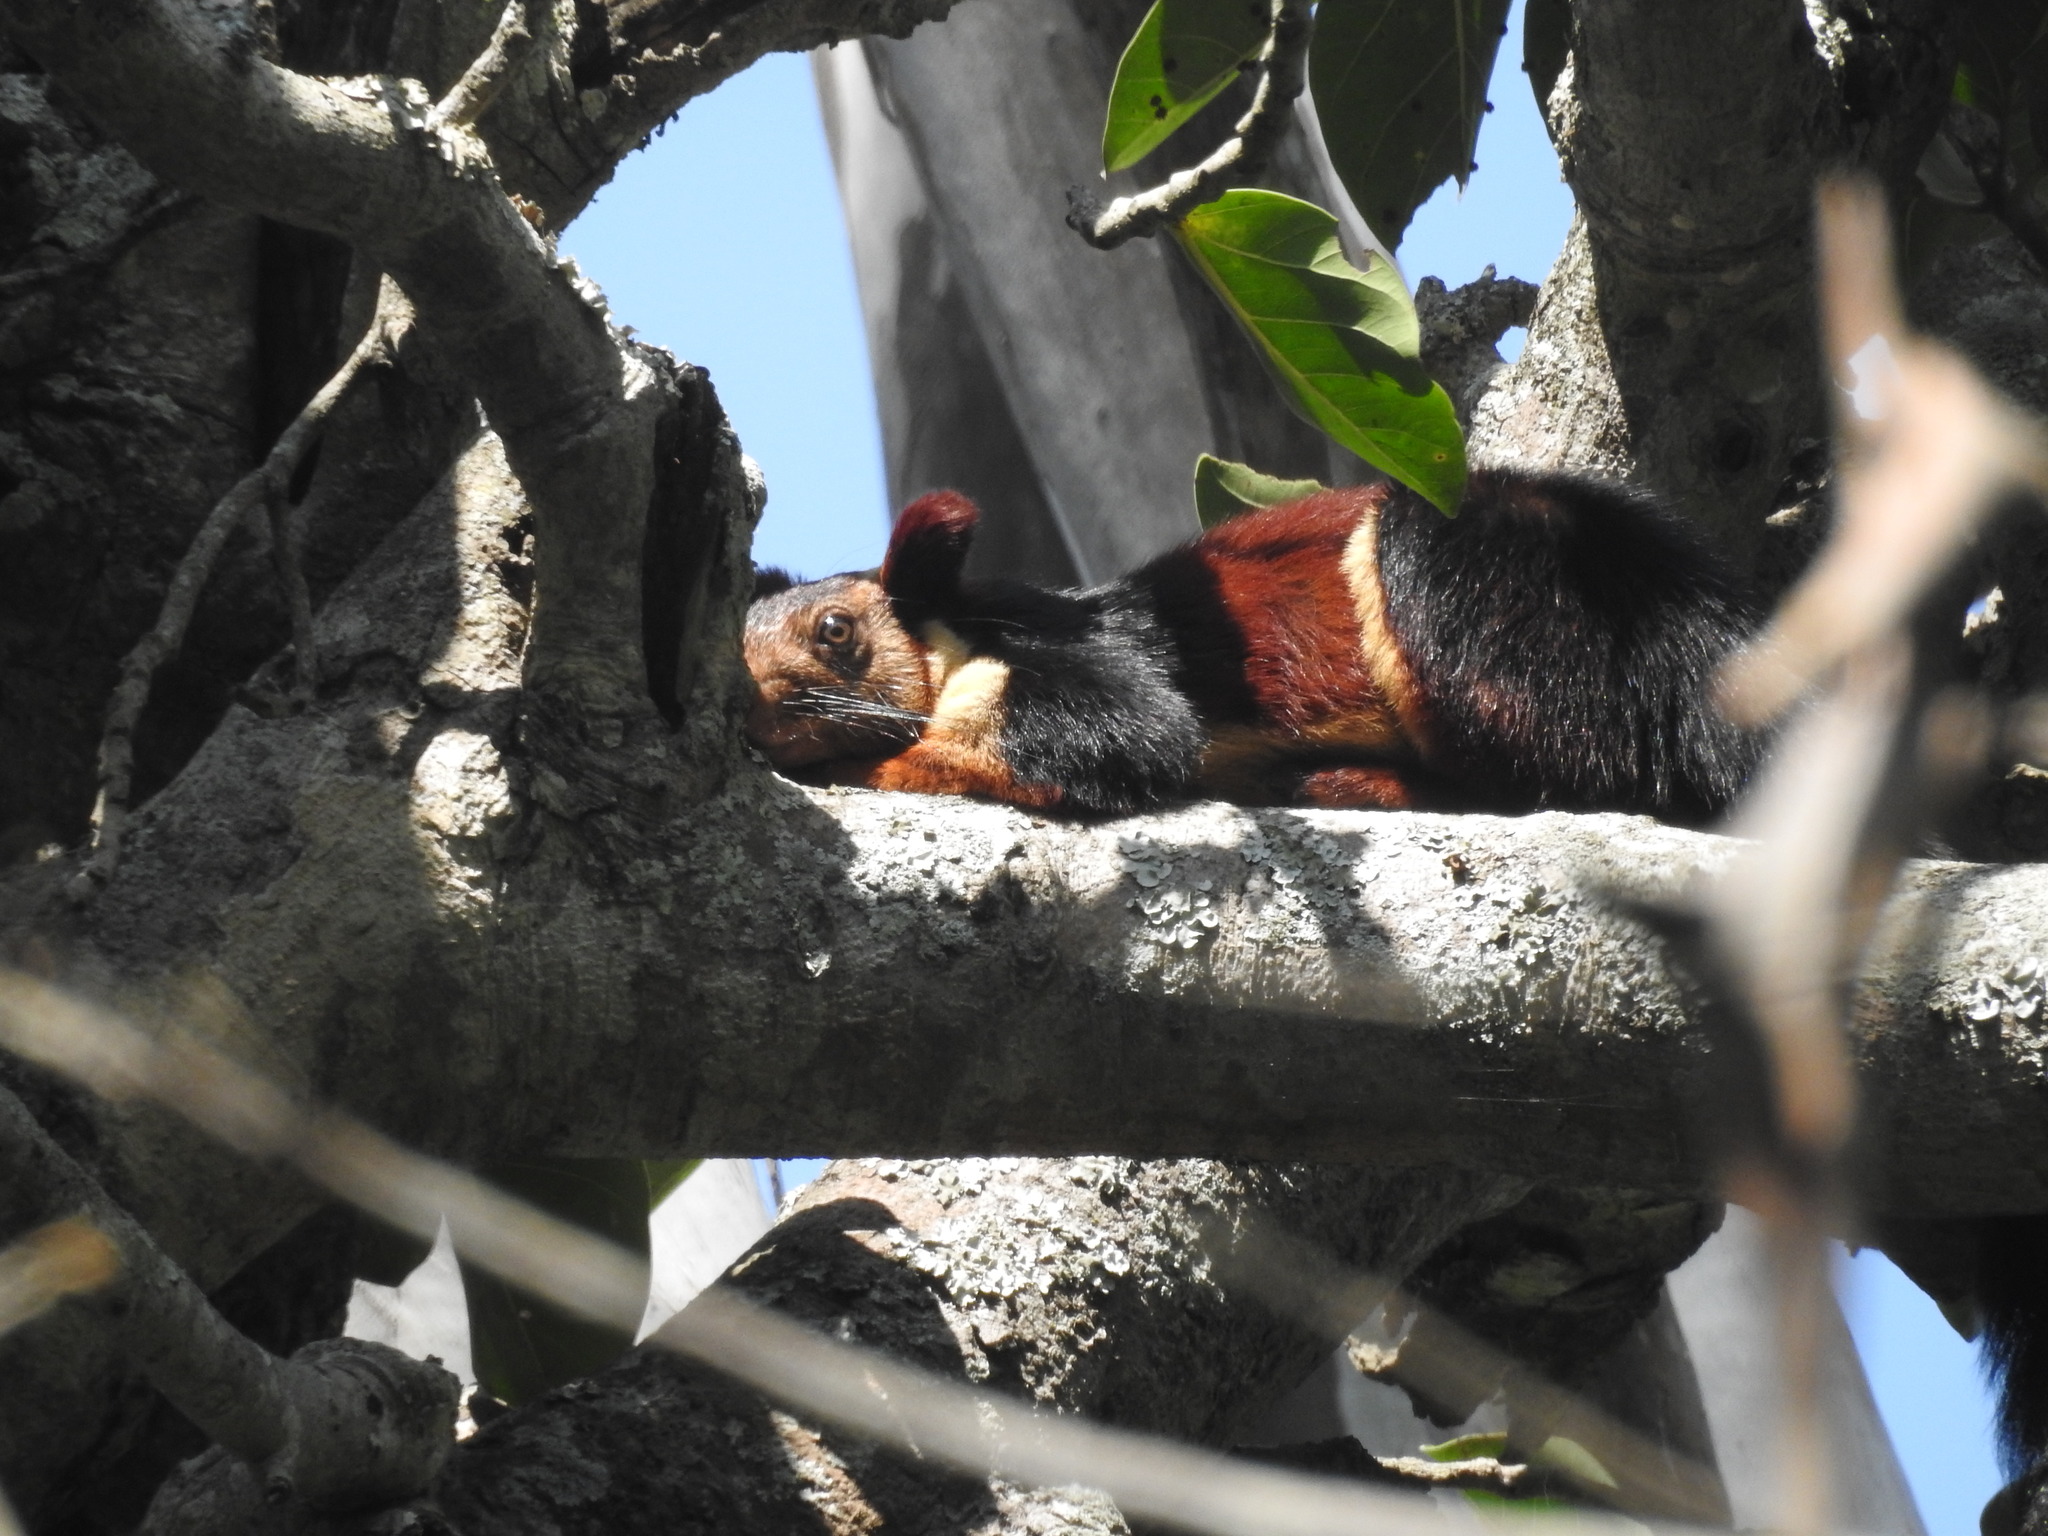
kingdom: Animalia
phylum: Chordata
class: Mammalia
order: Rodentia
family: Sciuridae
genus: Ratufa
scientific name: Ratufa indica
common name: Indian giant squirrel
